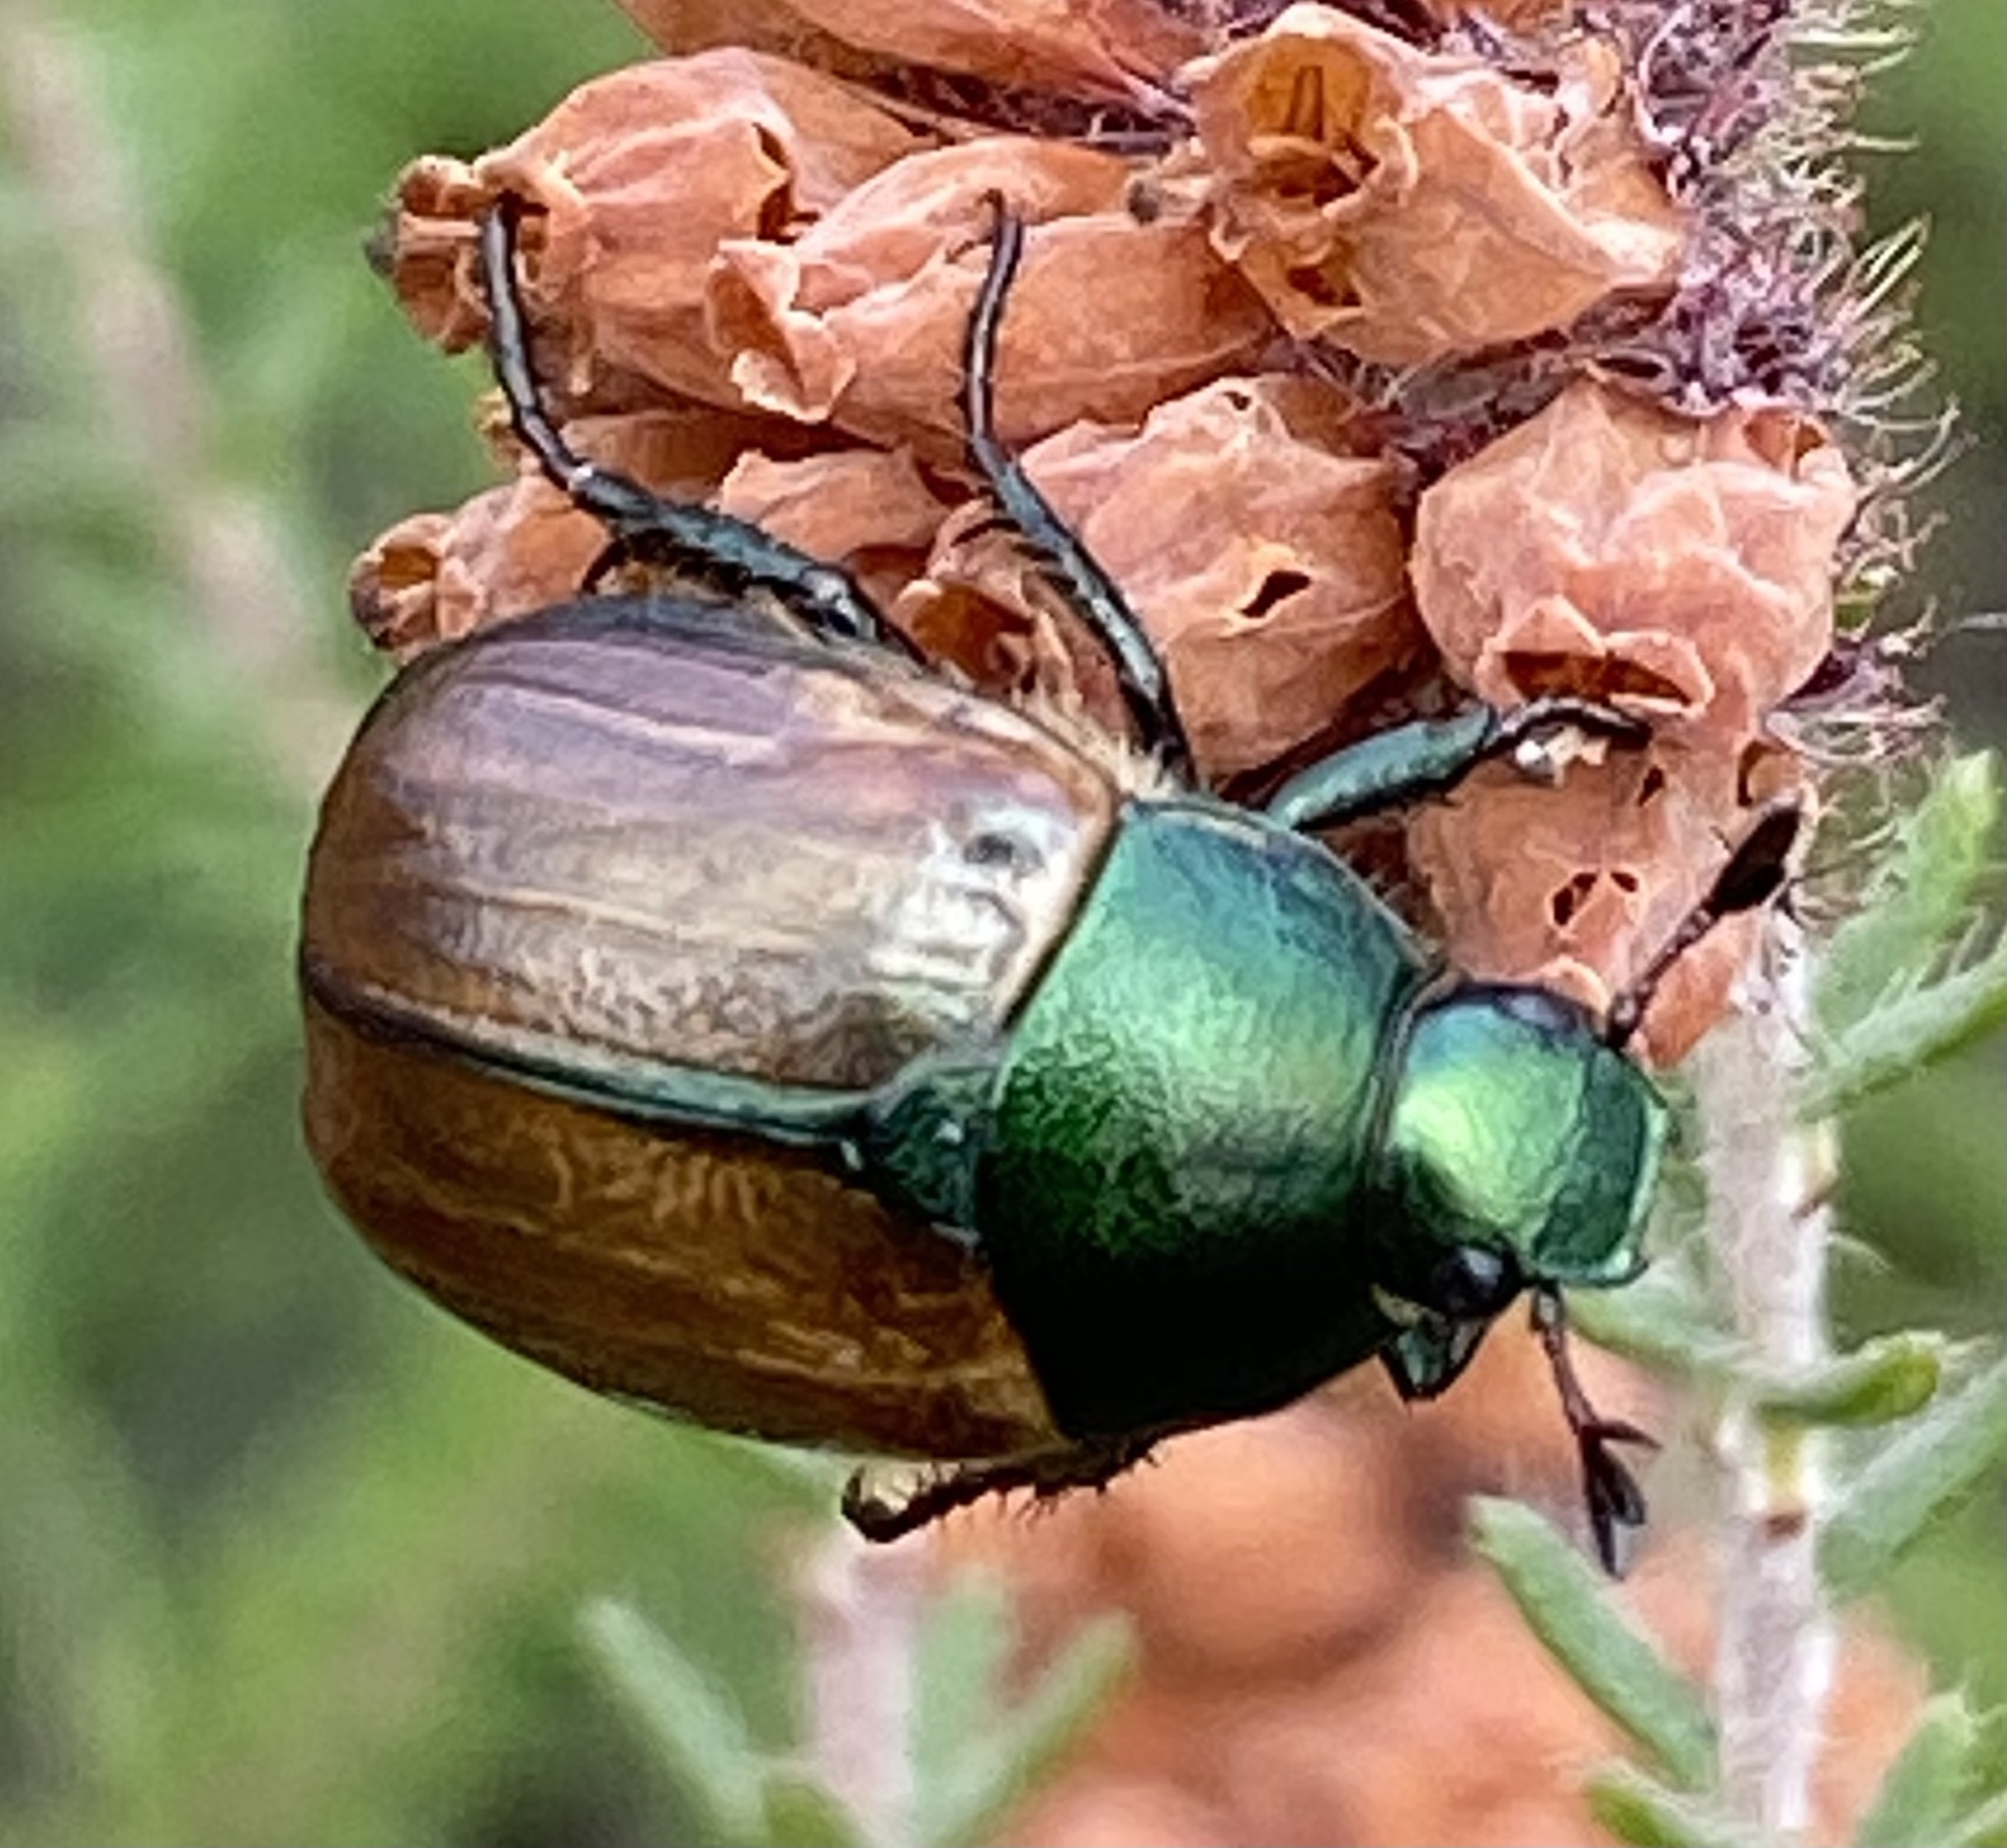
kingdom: Animalia
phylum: Arthropoda
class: Insecta
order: Coleoptera
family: Scarabaeidae
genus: Anomala
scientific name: Anomala dubia
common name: Dune chafer
